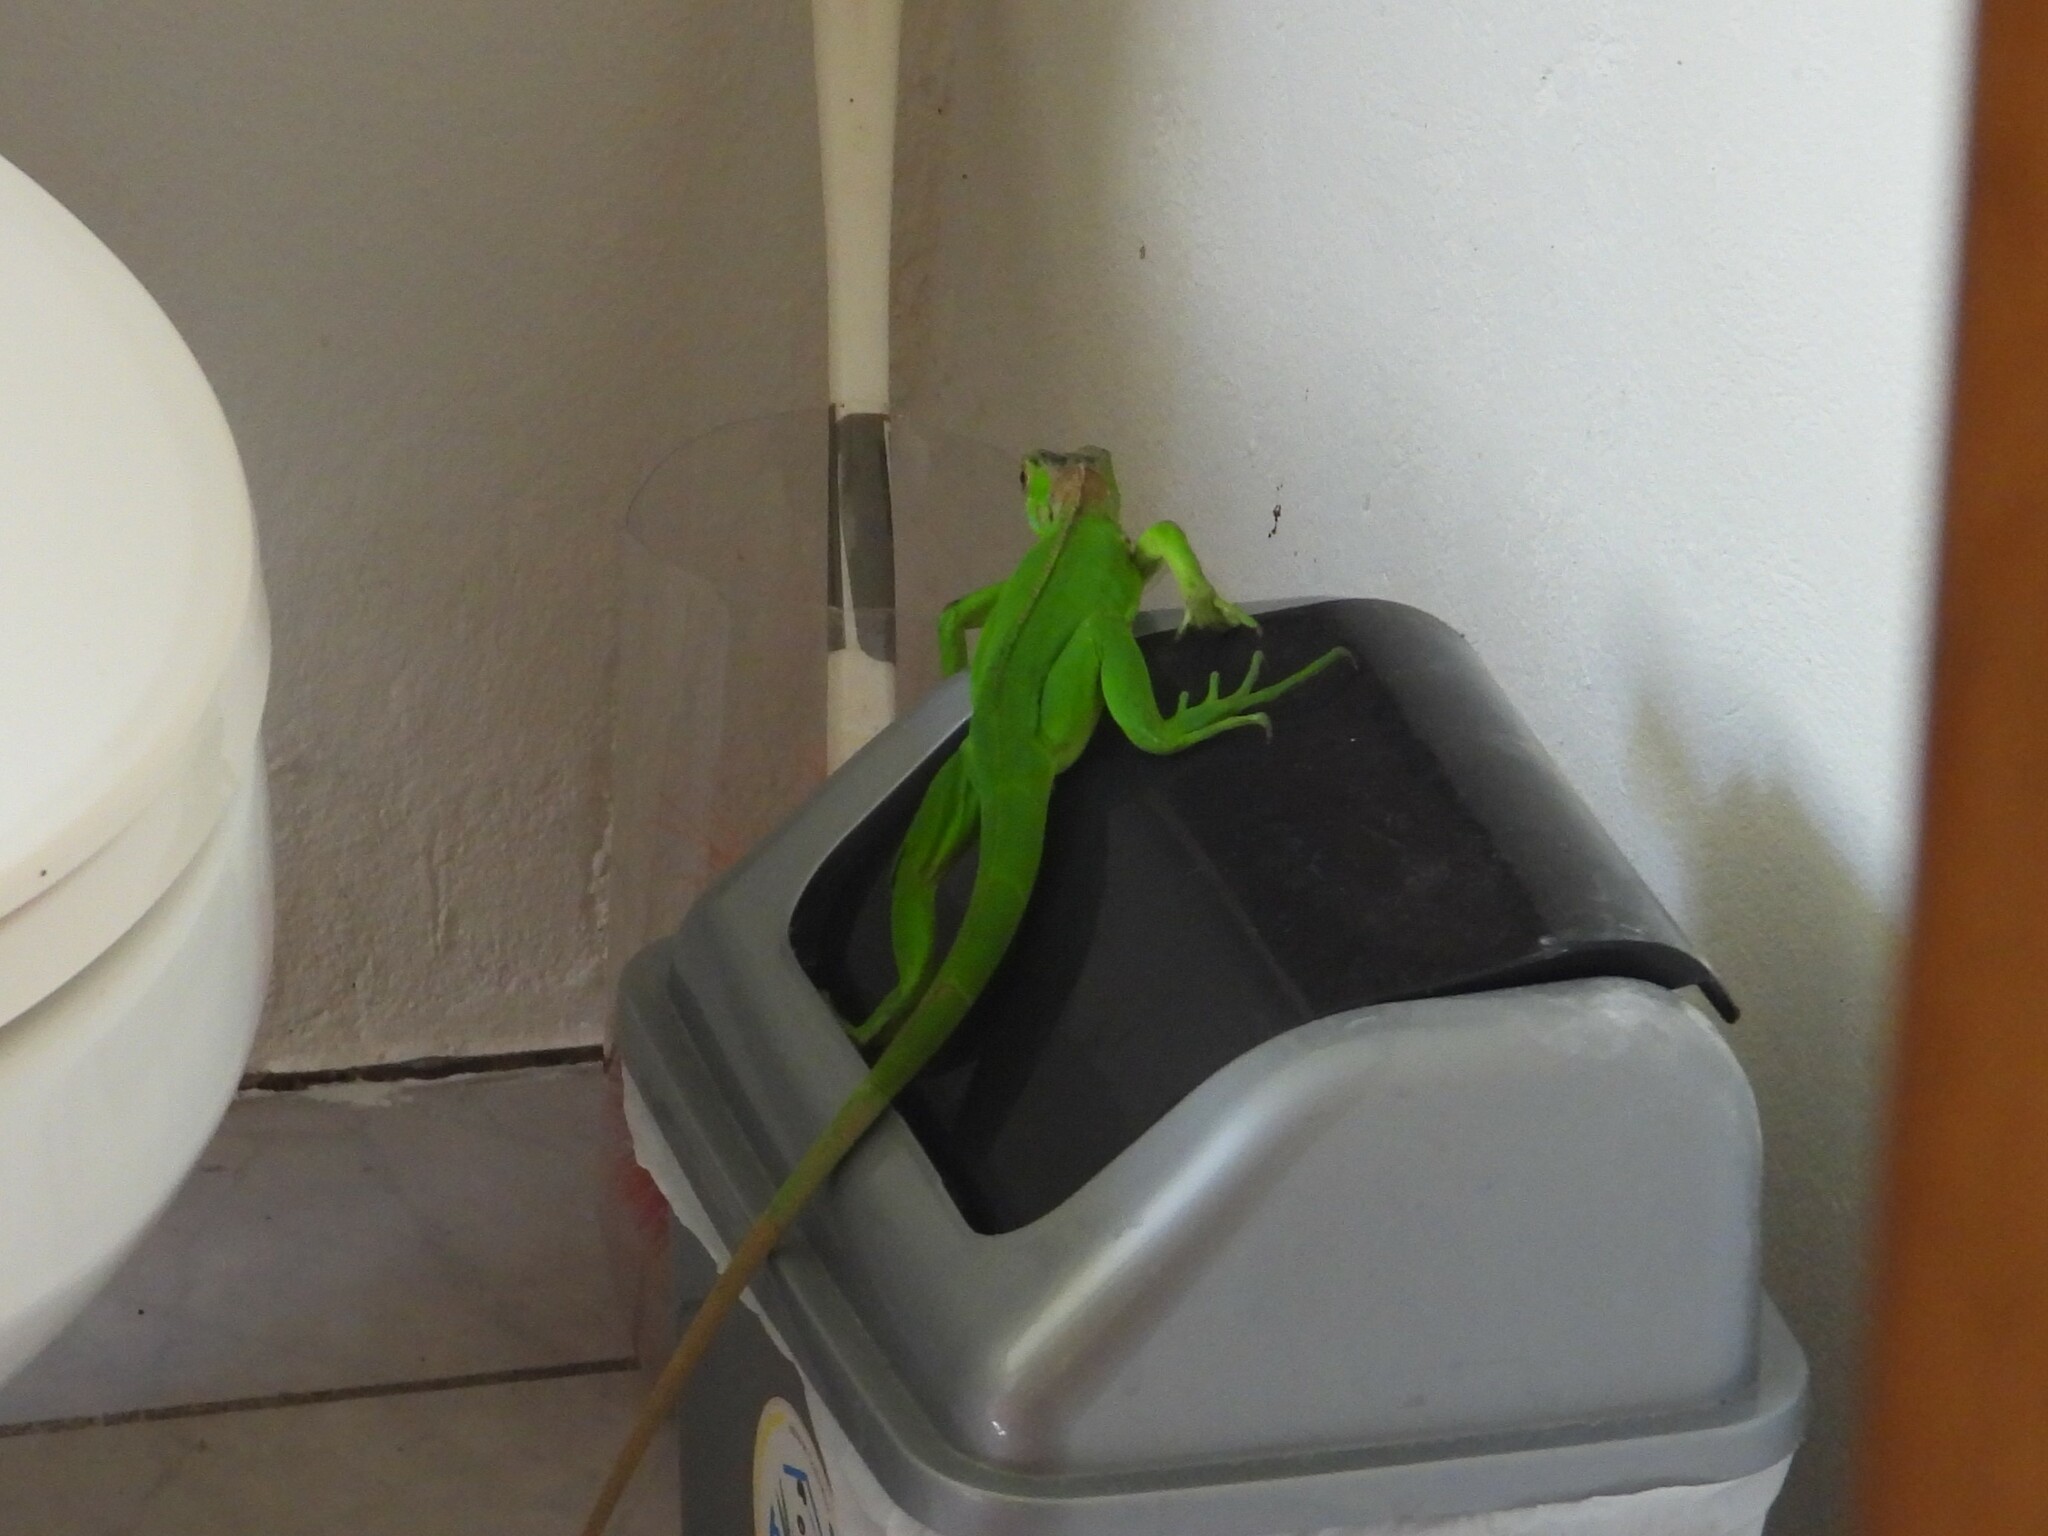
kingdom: Animalia
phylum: Chordata
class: Squamata
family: Iguanidae
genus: Iguana
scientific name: Iguana iguana
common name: Green iguana
